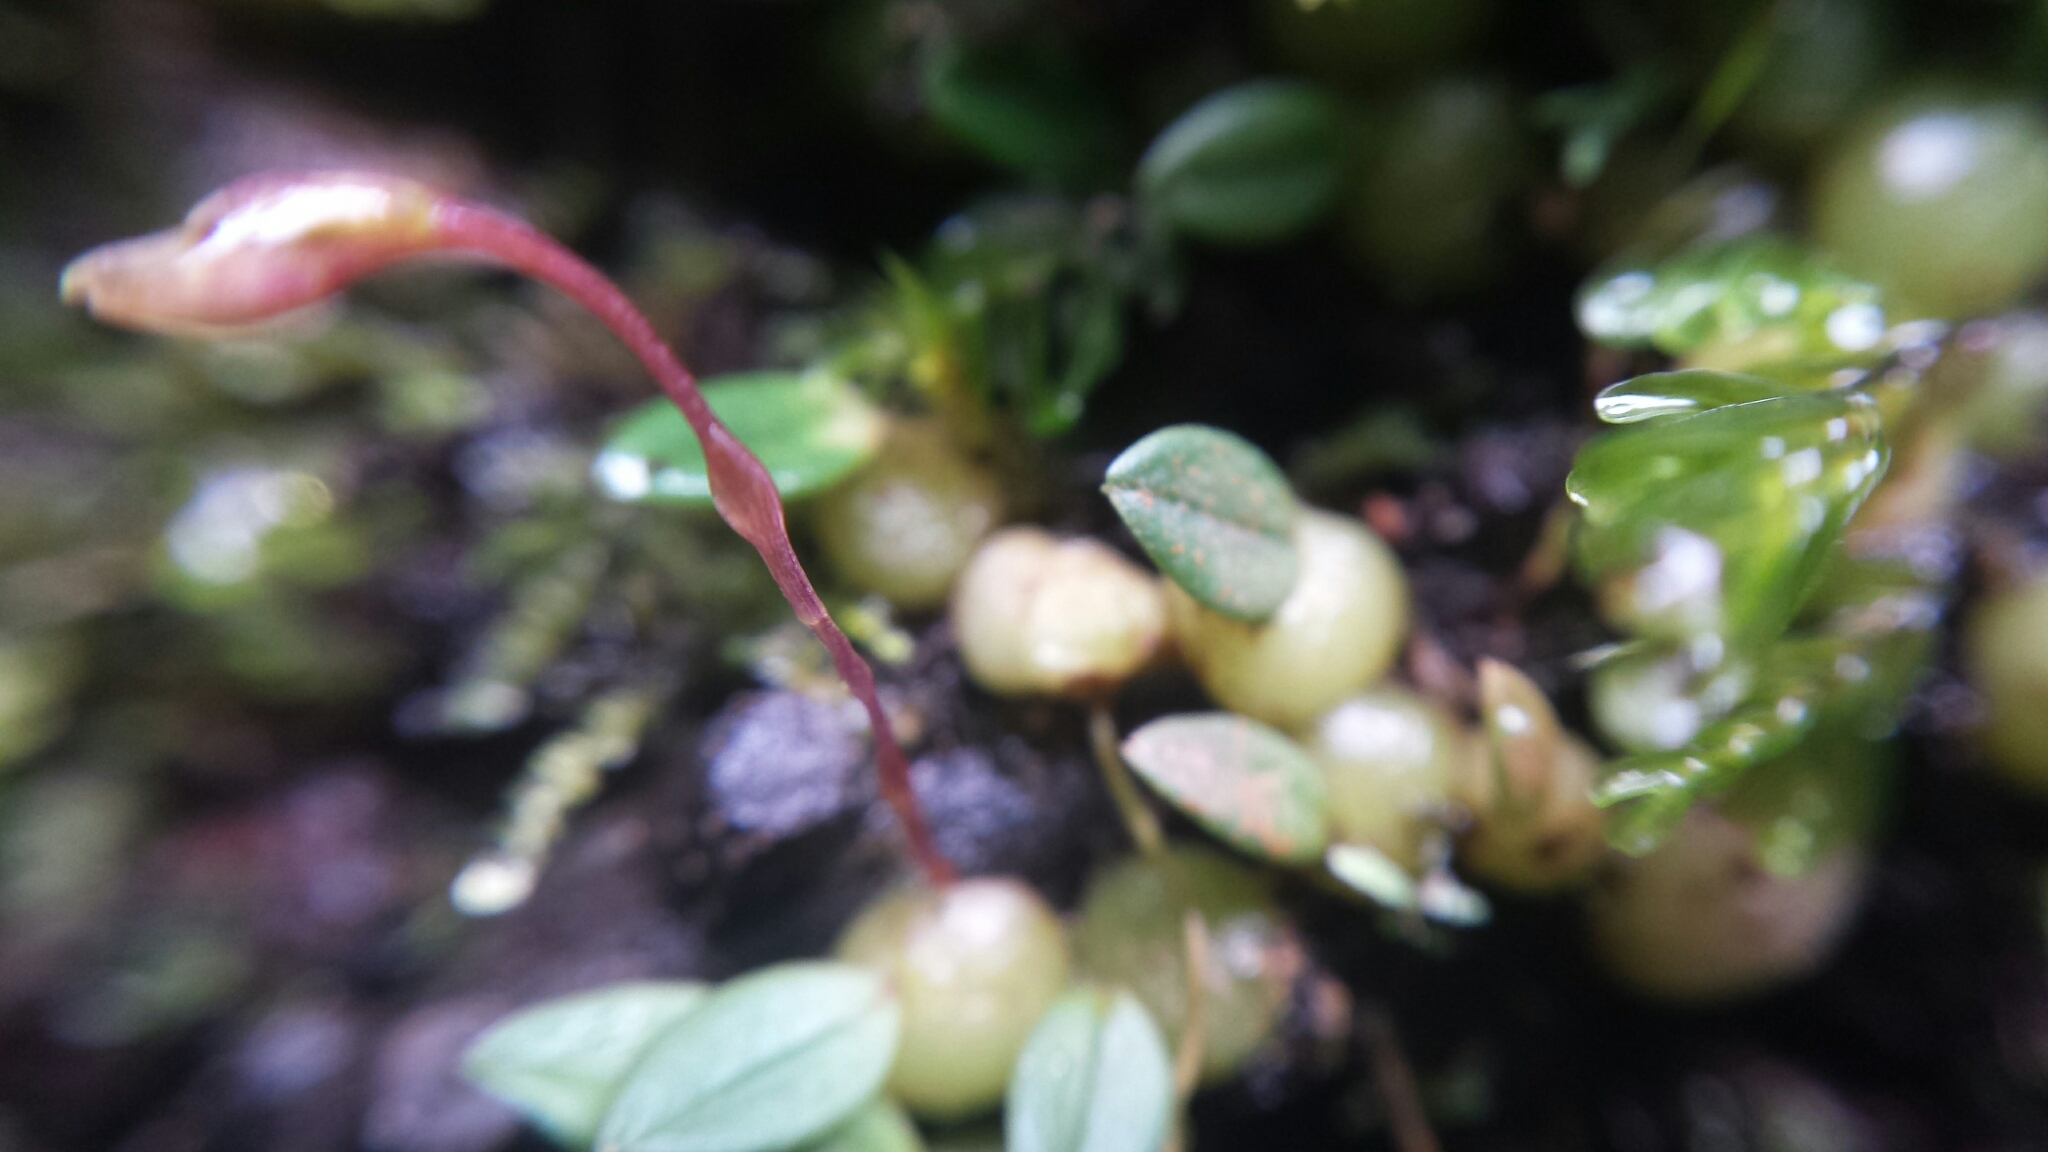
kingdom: Plantae
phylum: Tracheophyta
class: Liliopsida
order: Asparagales
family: Orchidaceae
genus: Bulbophyllum
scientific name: Bulbophyllum conchidioides
